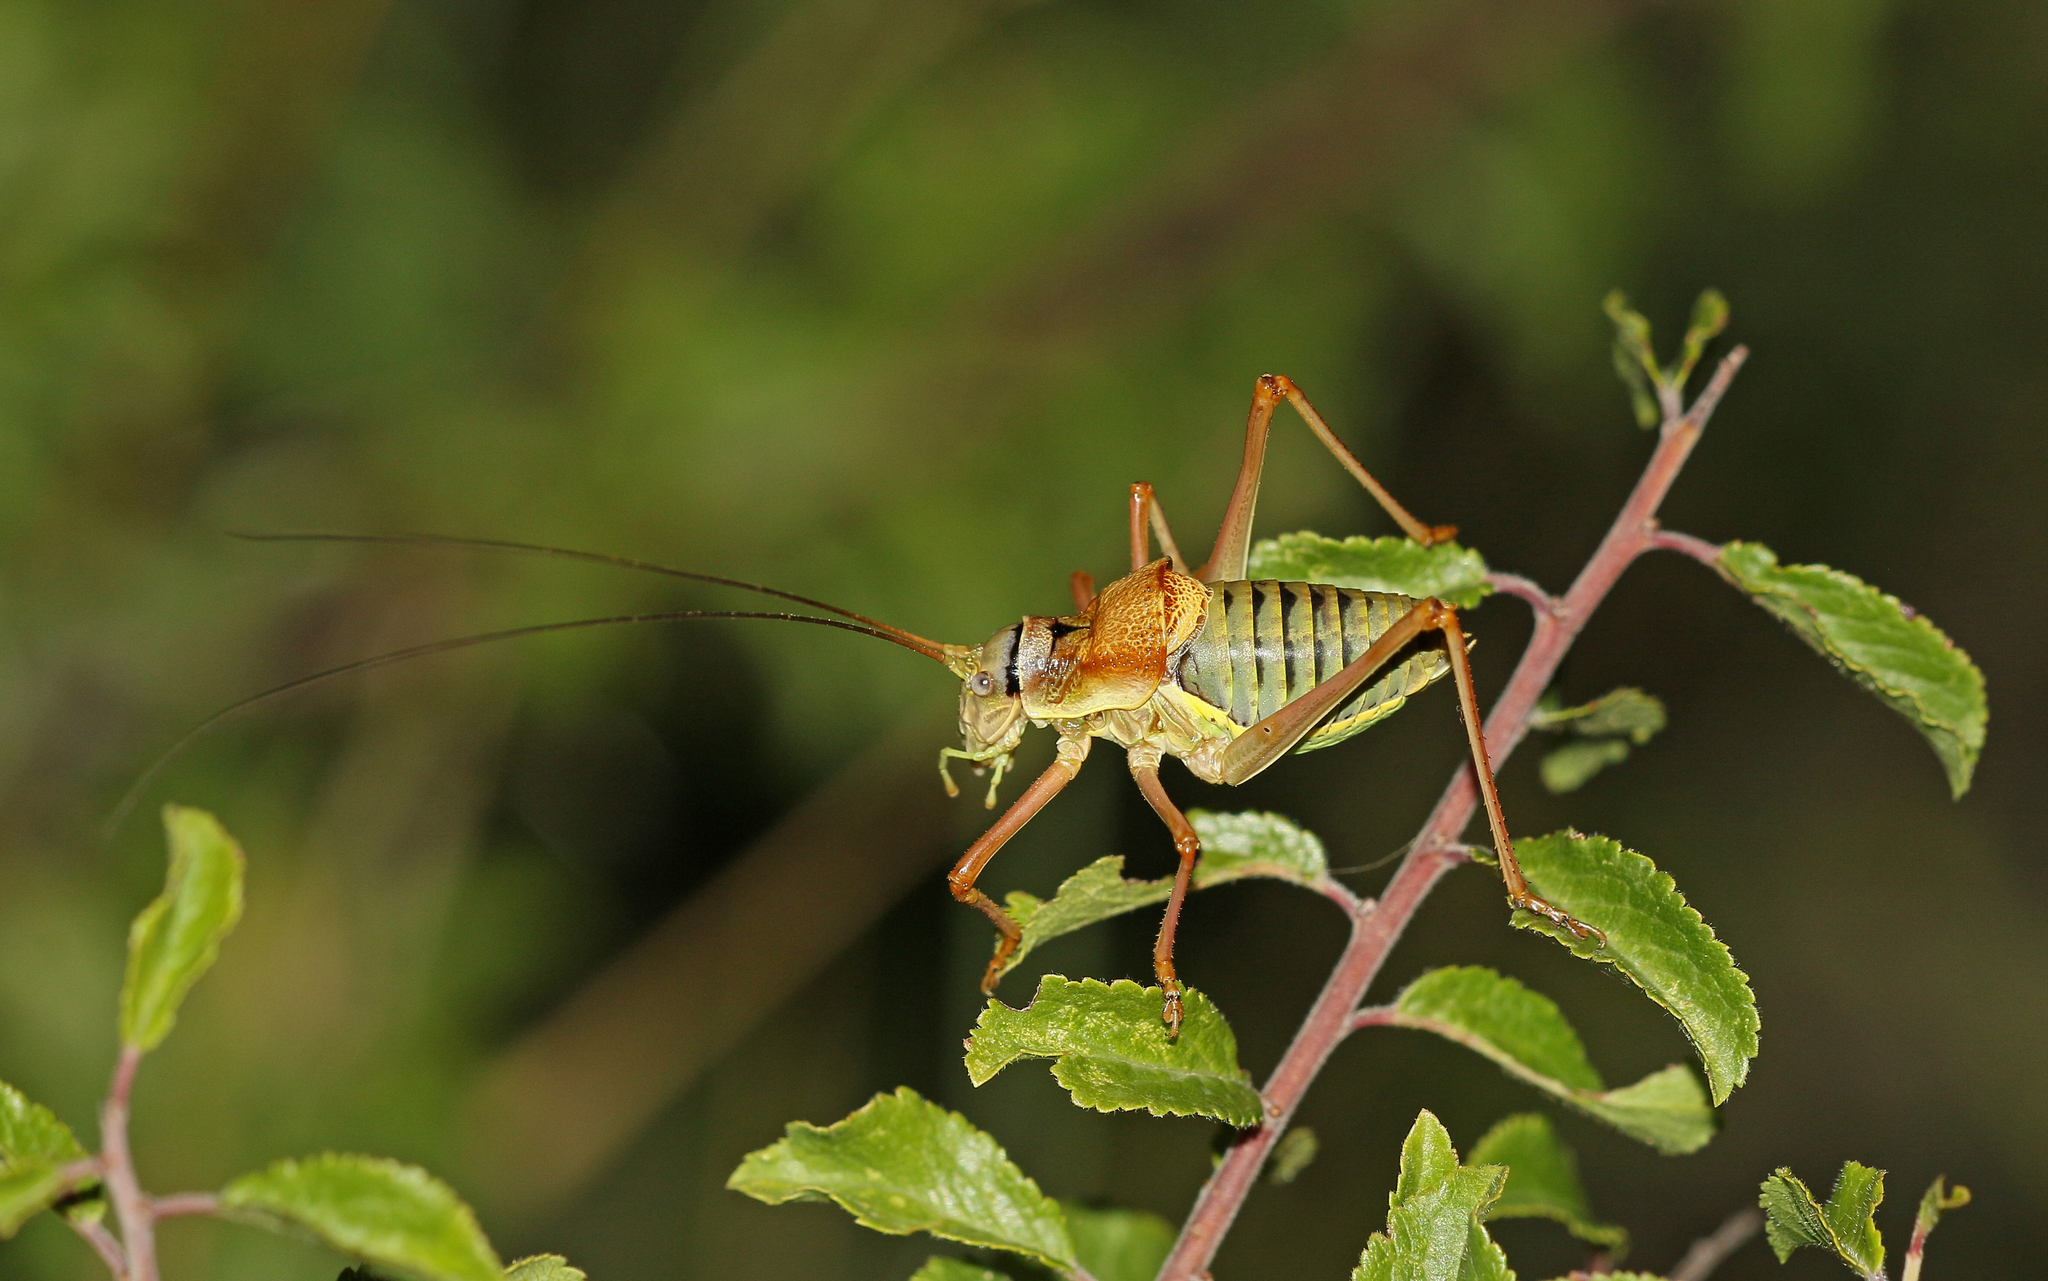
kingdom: Animalia
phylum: Arthropoda
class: Insecta
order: Orthoptera
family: Tettigoniidae
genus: Ephippiger
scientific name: Ephippiger diurnus
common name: Western saddle bush-cricket
